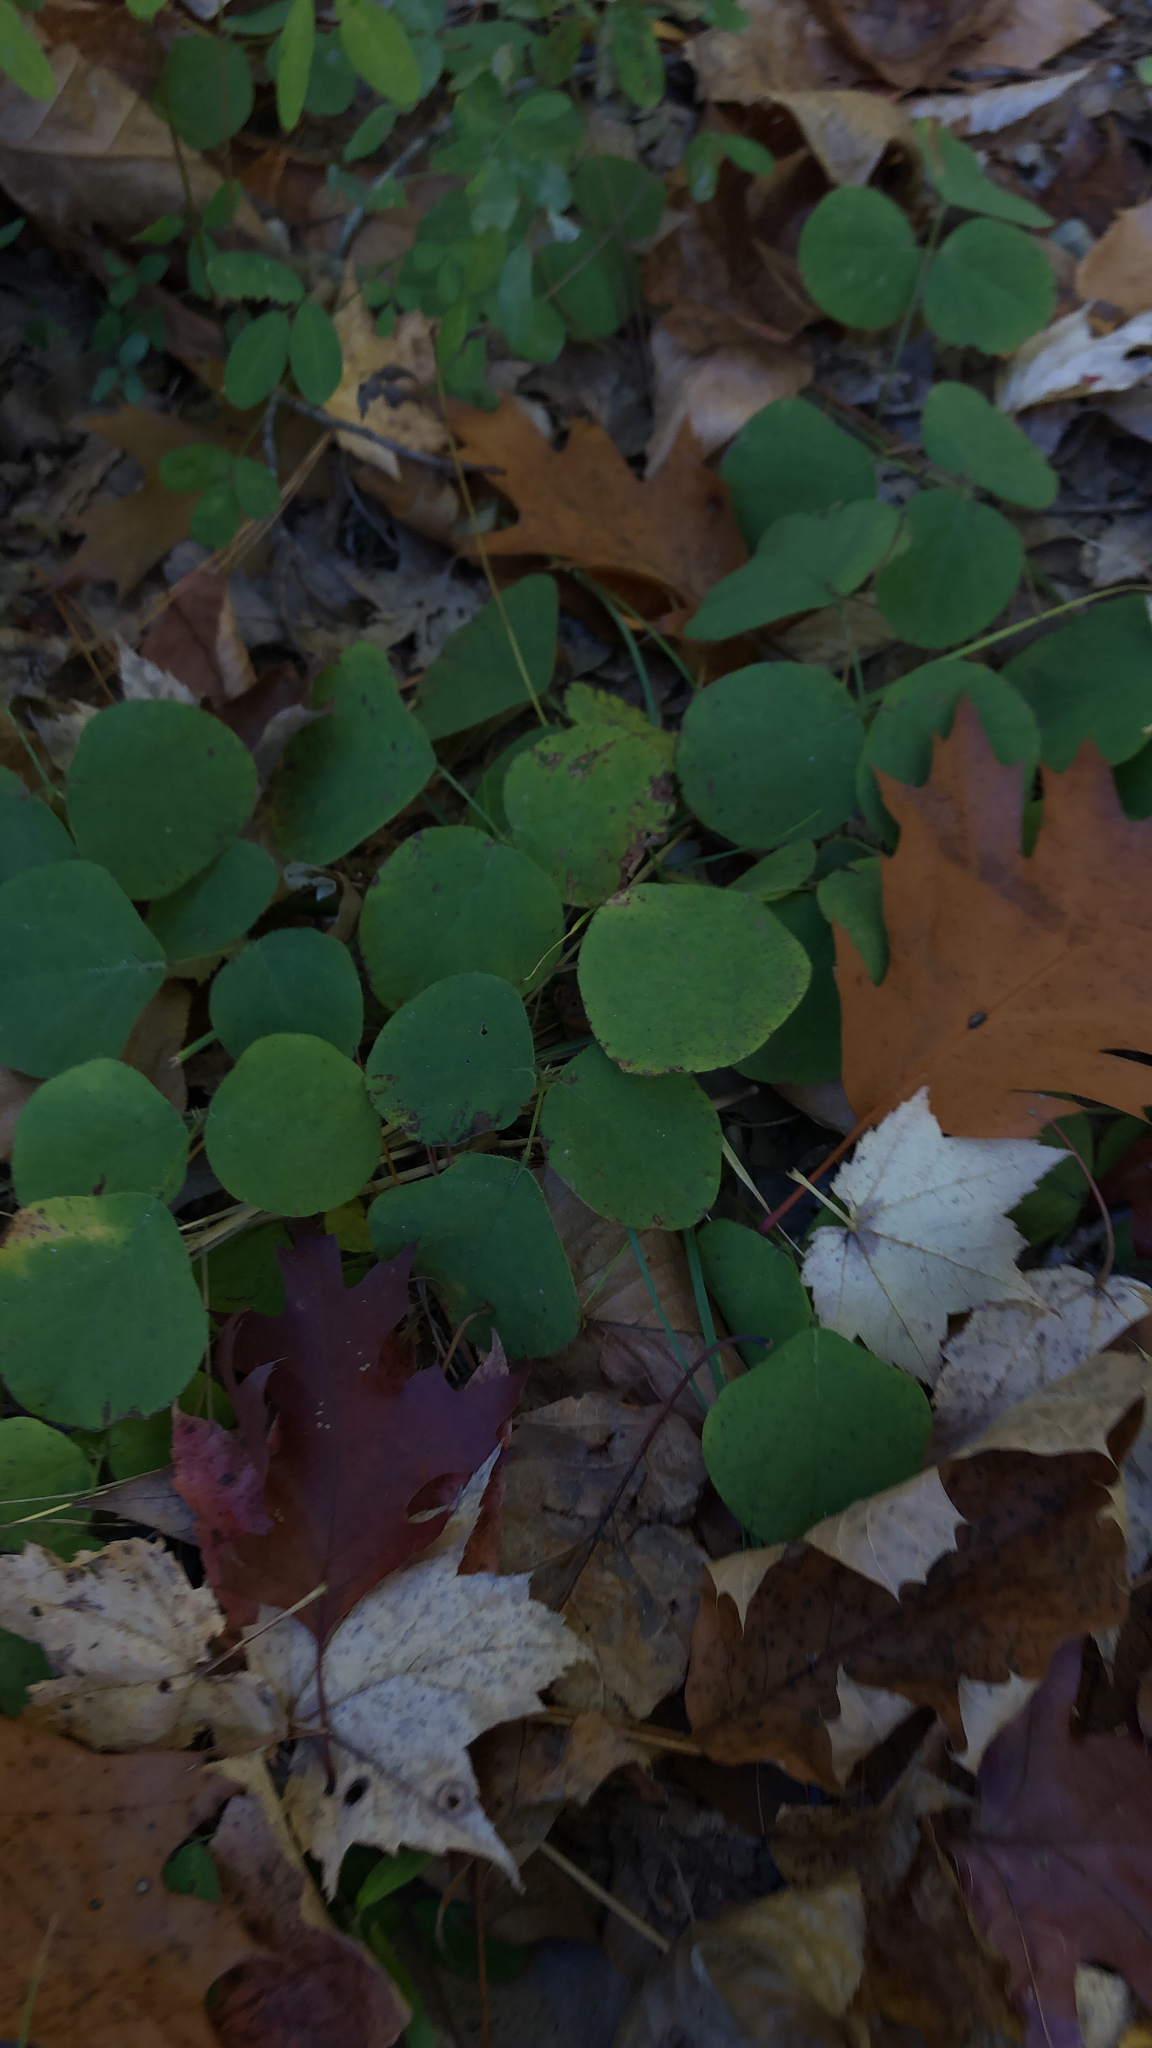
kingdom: Plantae
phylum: Tracheophyta
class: Magnoliopsida
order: Fabales
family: Fabaceae
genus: Desmodium
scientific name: Desmodium rotundifolium
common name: Dollarleaf
